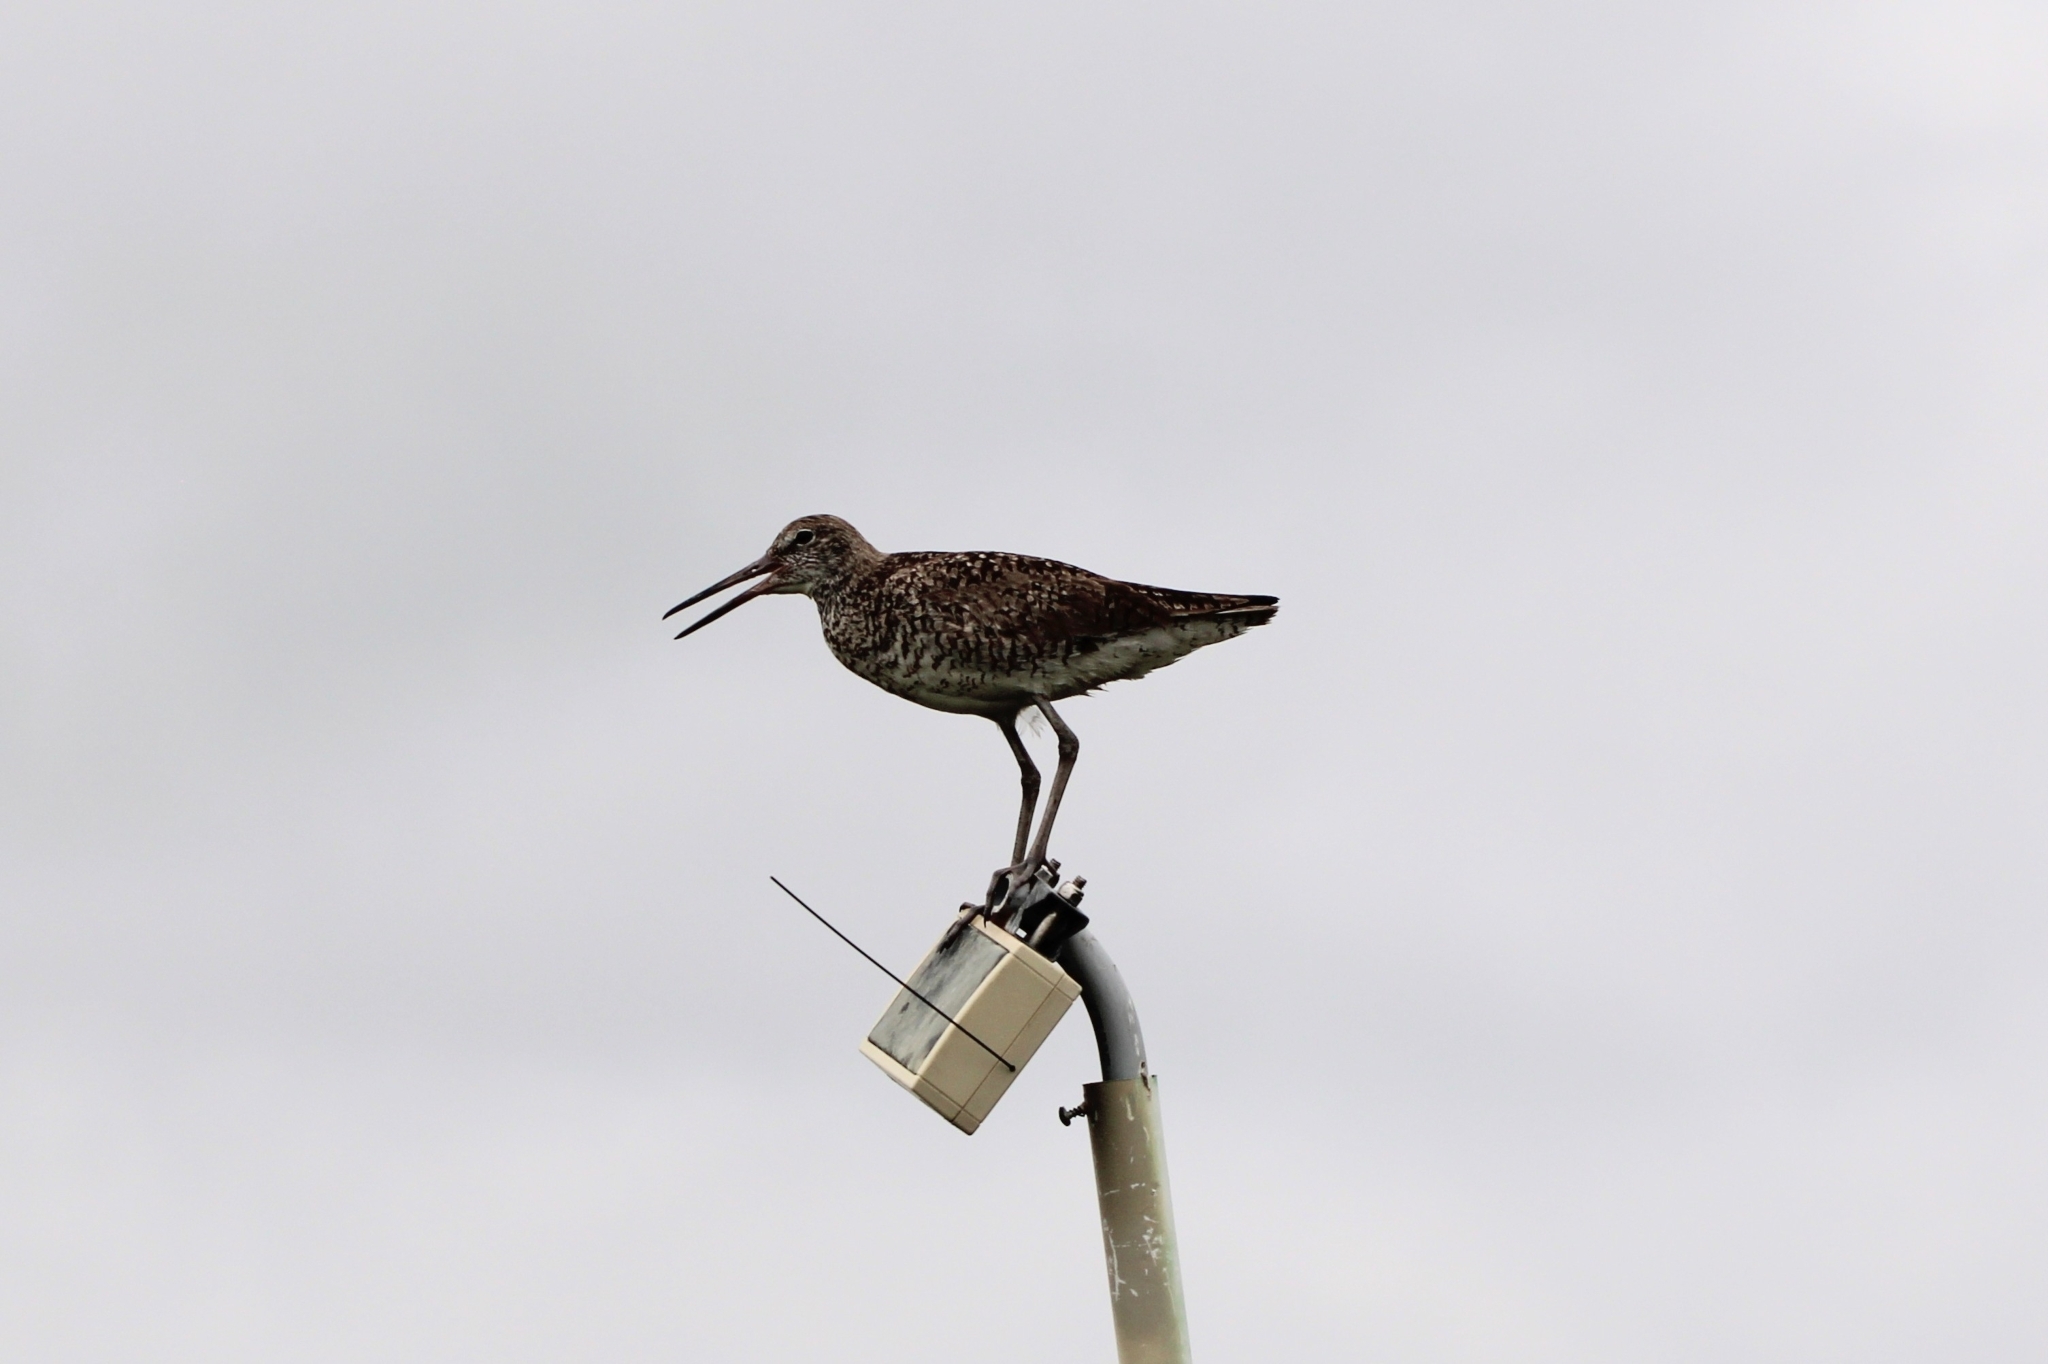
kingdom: Animalia
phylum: Chordata
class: Aves
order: Charadriiformes
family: Scolopacidae
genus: Tringa
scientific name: Tringa semipalmata
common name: Willet
